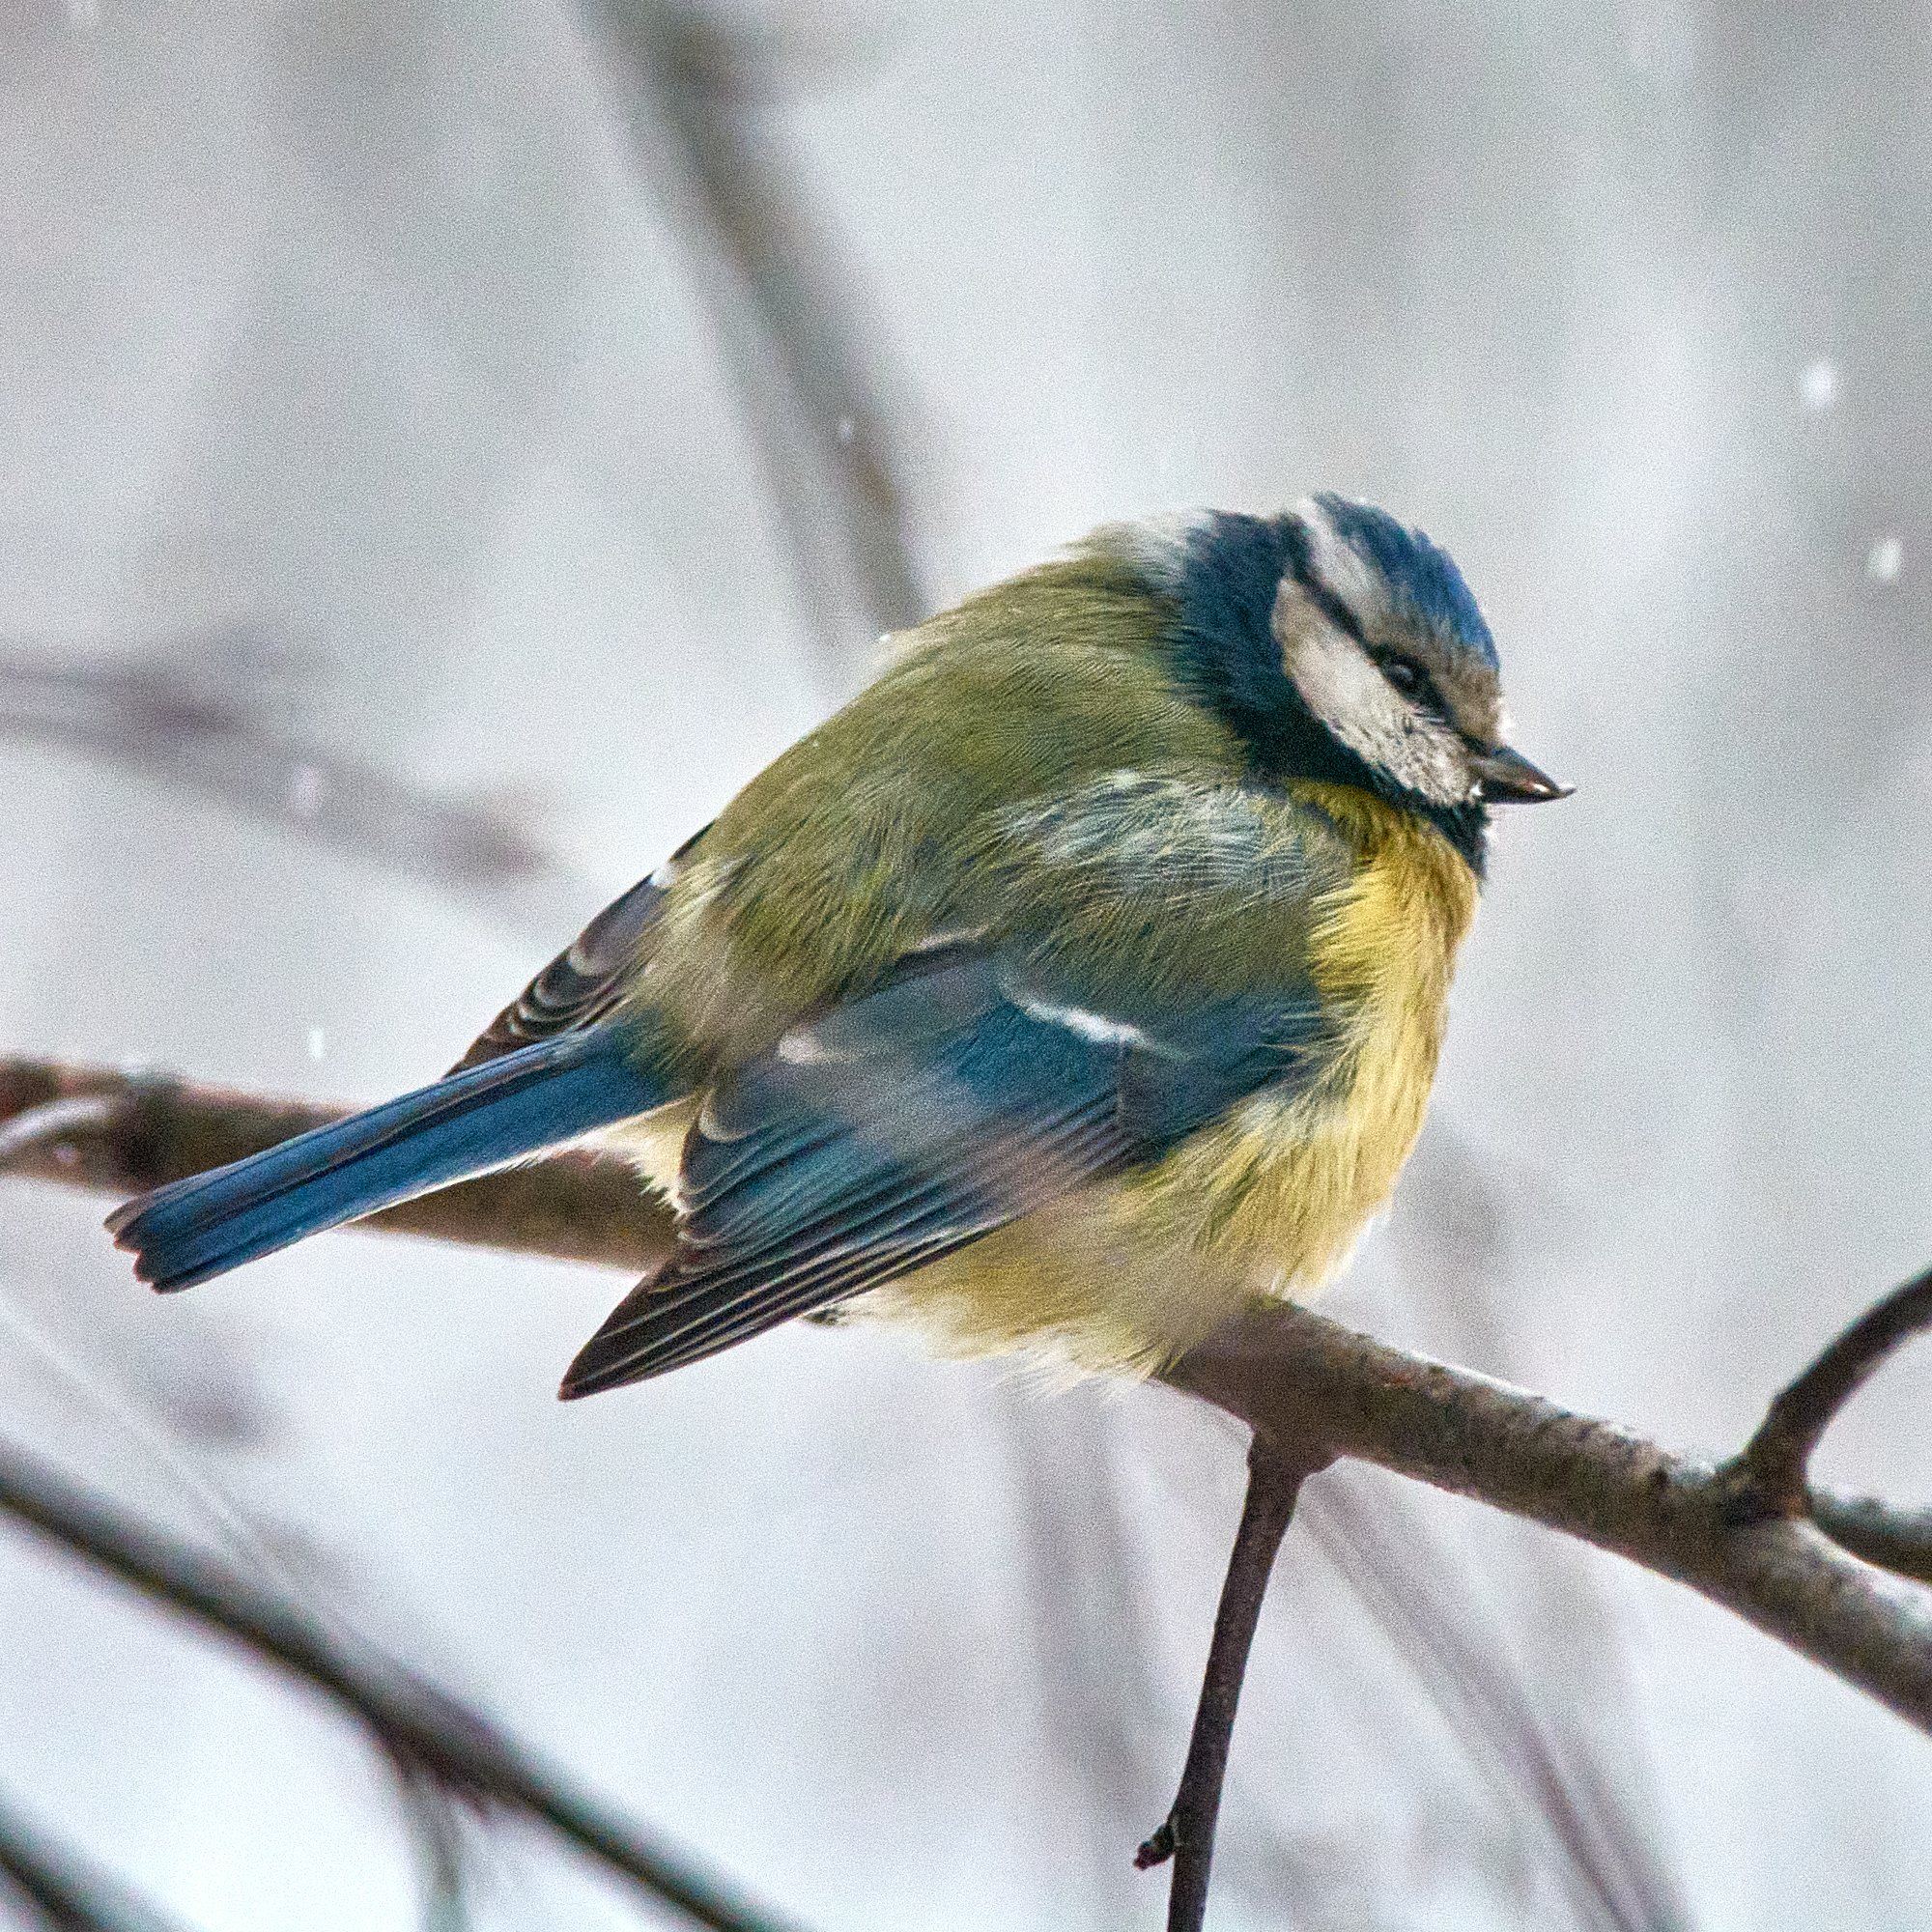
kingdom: Animalia
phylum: Chordata
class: Aves
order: Passeriformes
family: Paridae
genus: Cyanistes
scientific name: Cyanistes caeruleus
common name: Eurasian blue tit
